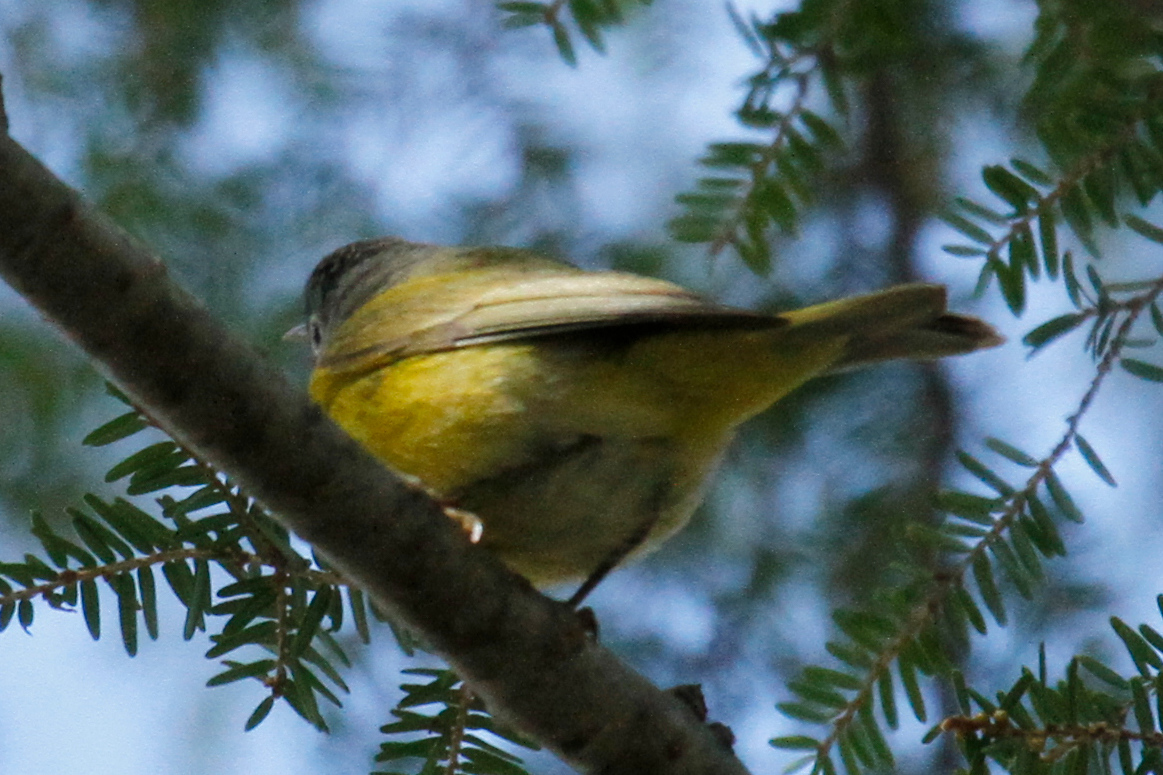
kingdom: Animalia
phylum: Chordata
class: Aves
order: Passeriformes
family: Parulidae
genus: Leiothlypis
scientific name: Leiothlypis ruficapilla
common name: Nashville warbler
